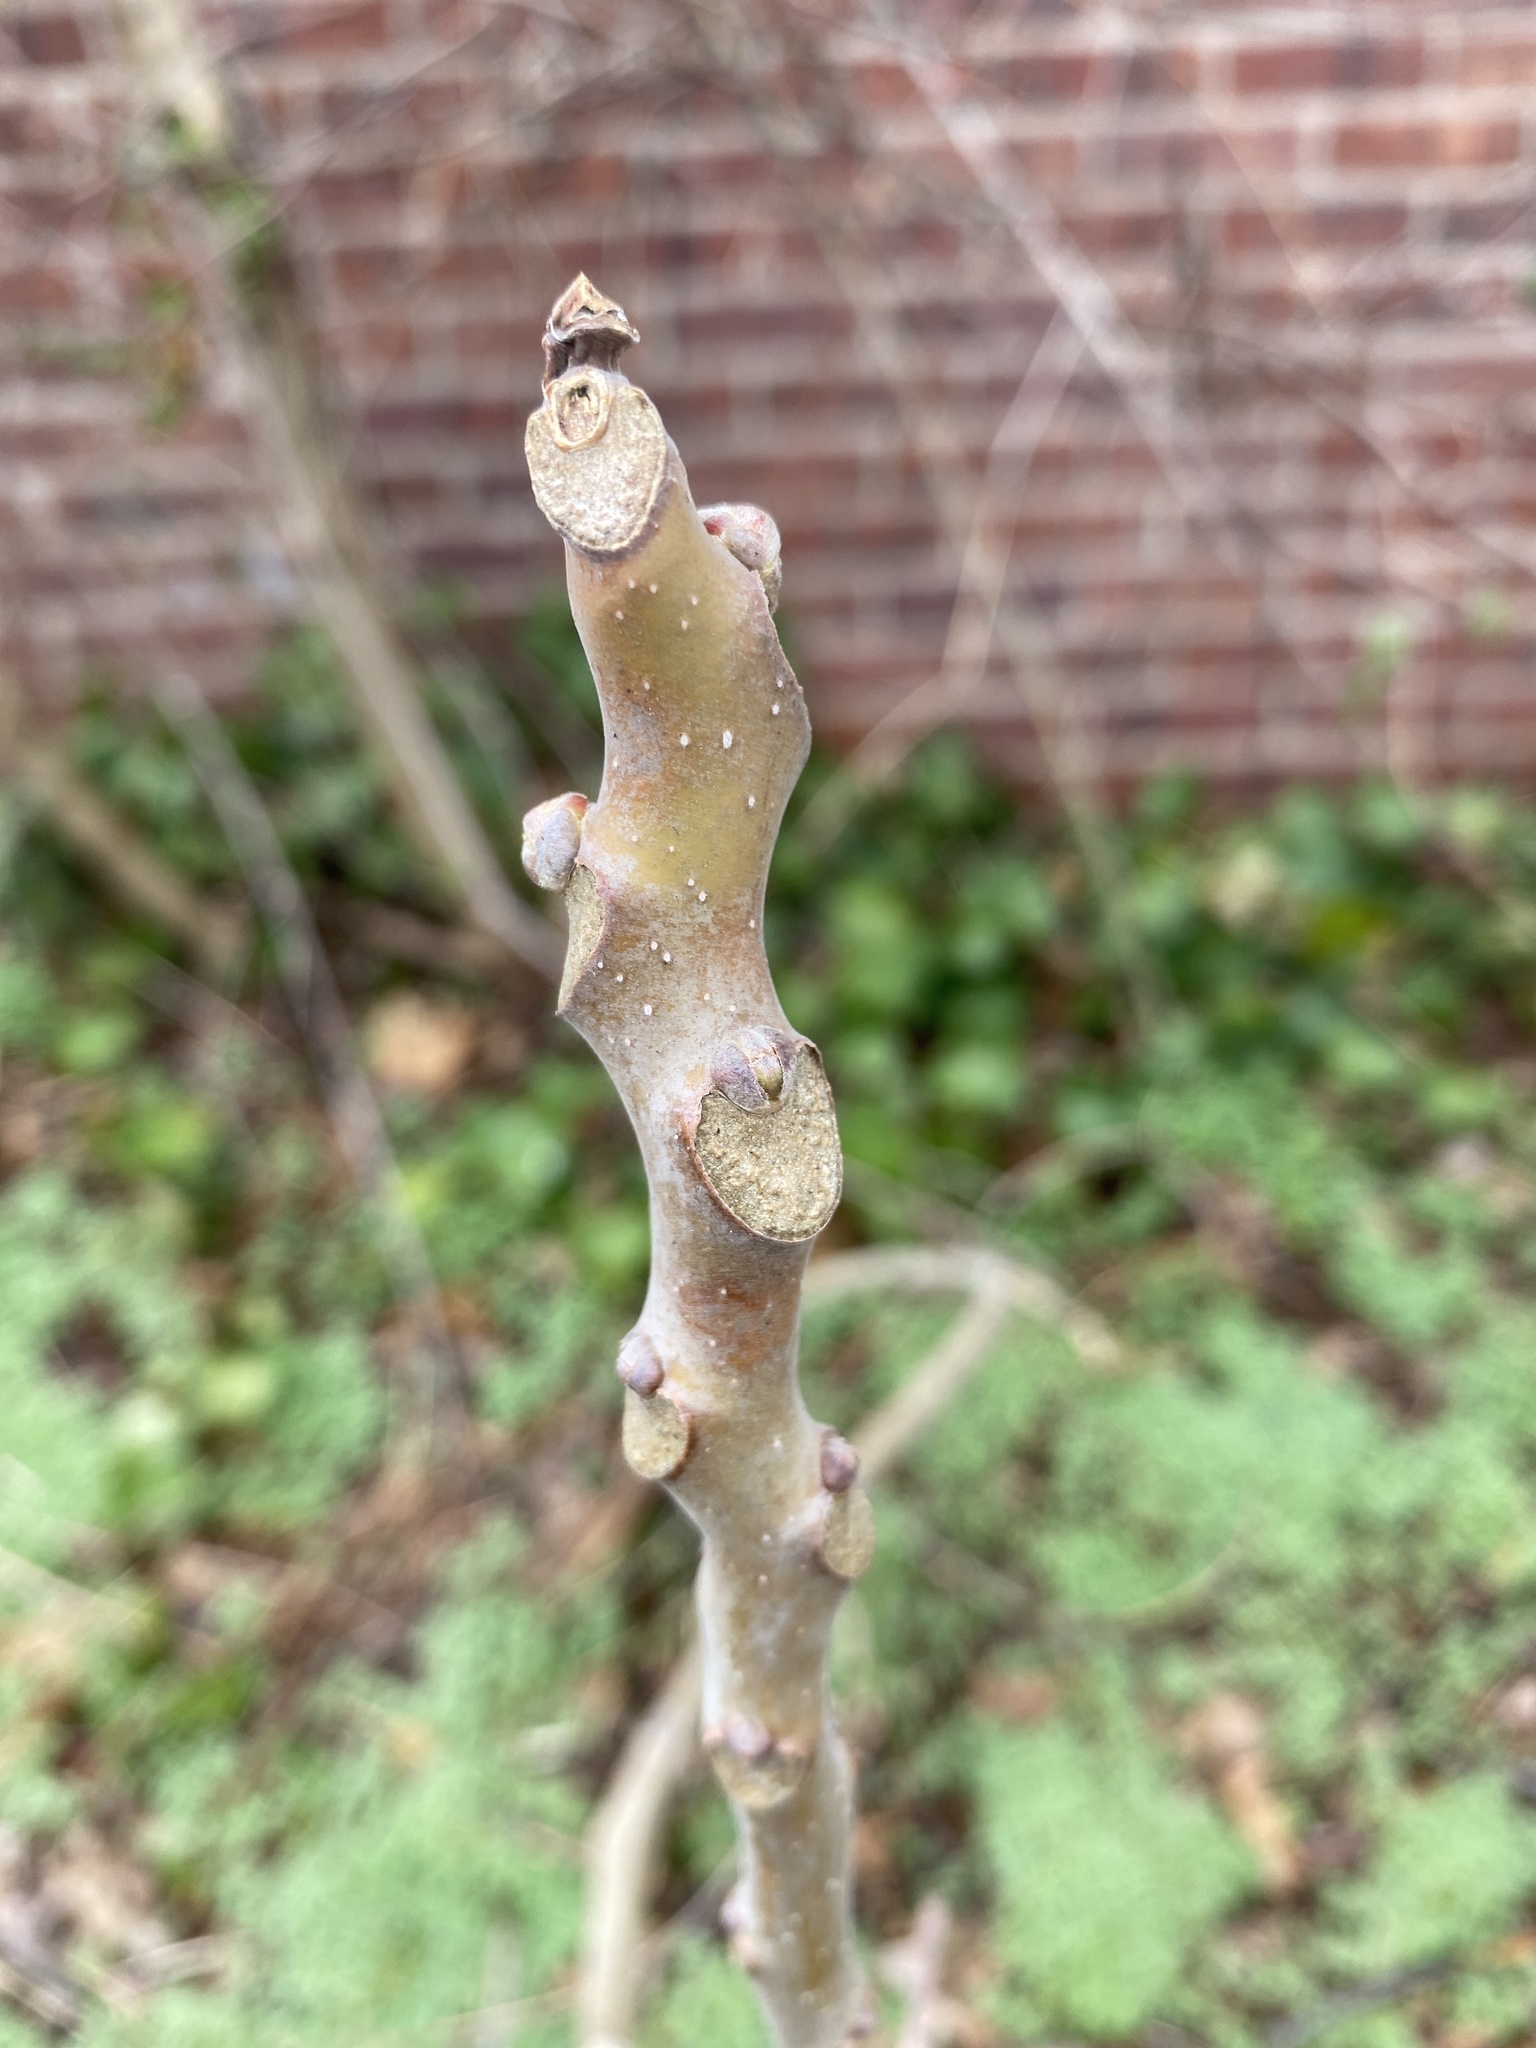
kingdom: Plantae
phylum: Tracheophyta
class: Magnoliopsida
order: Sapindales
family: Simaroubaceae
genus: Ailanthus
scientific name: Ailanthus altissima
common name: Tree-of-heaven
